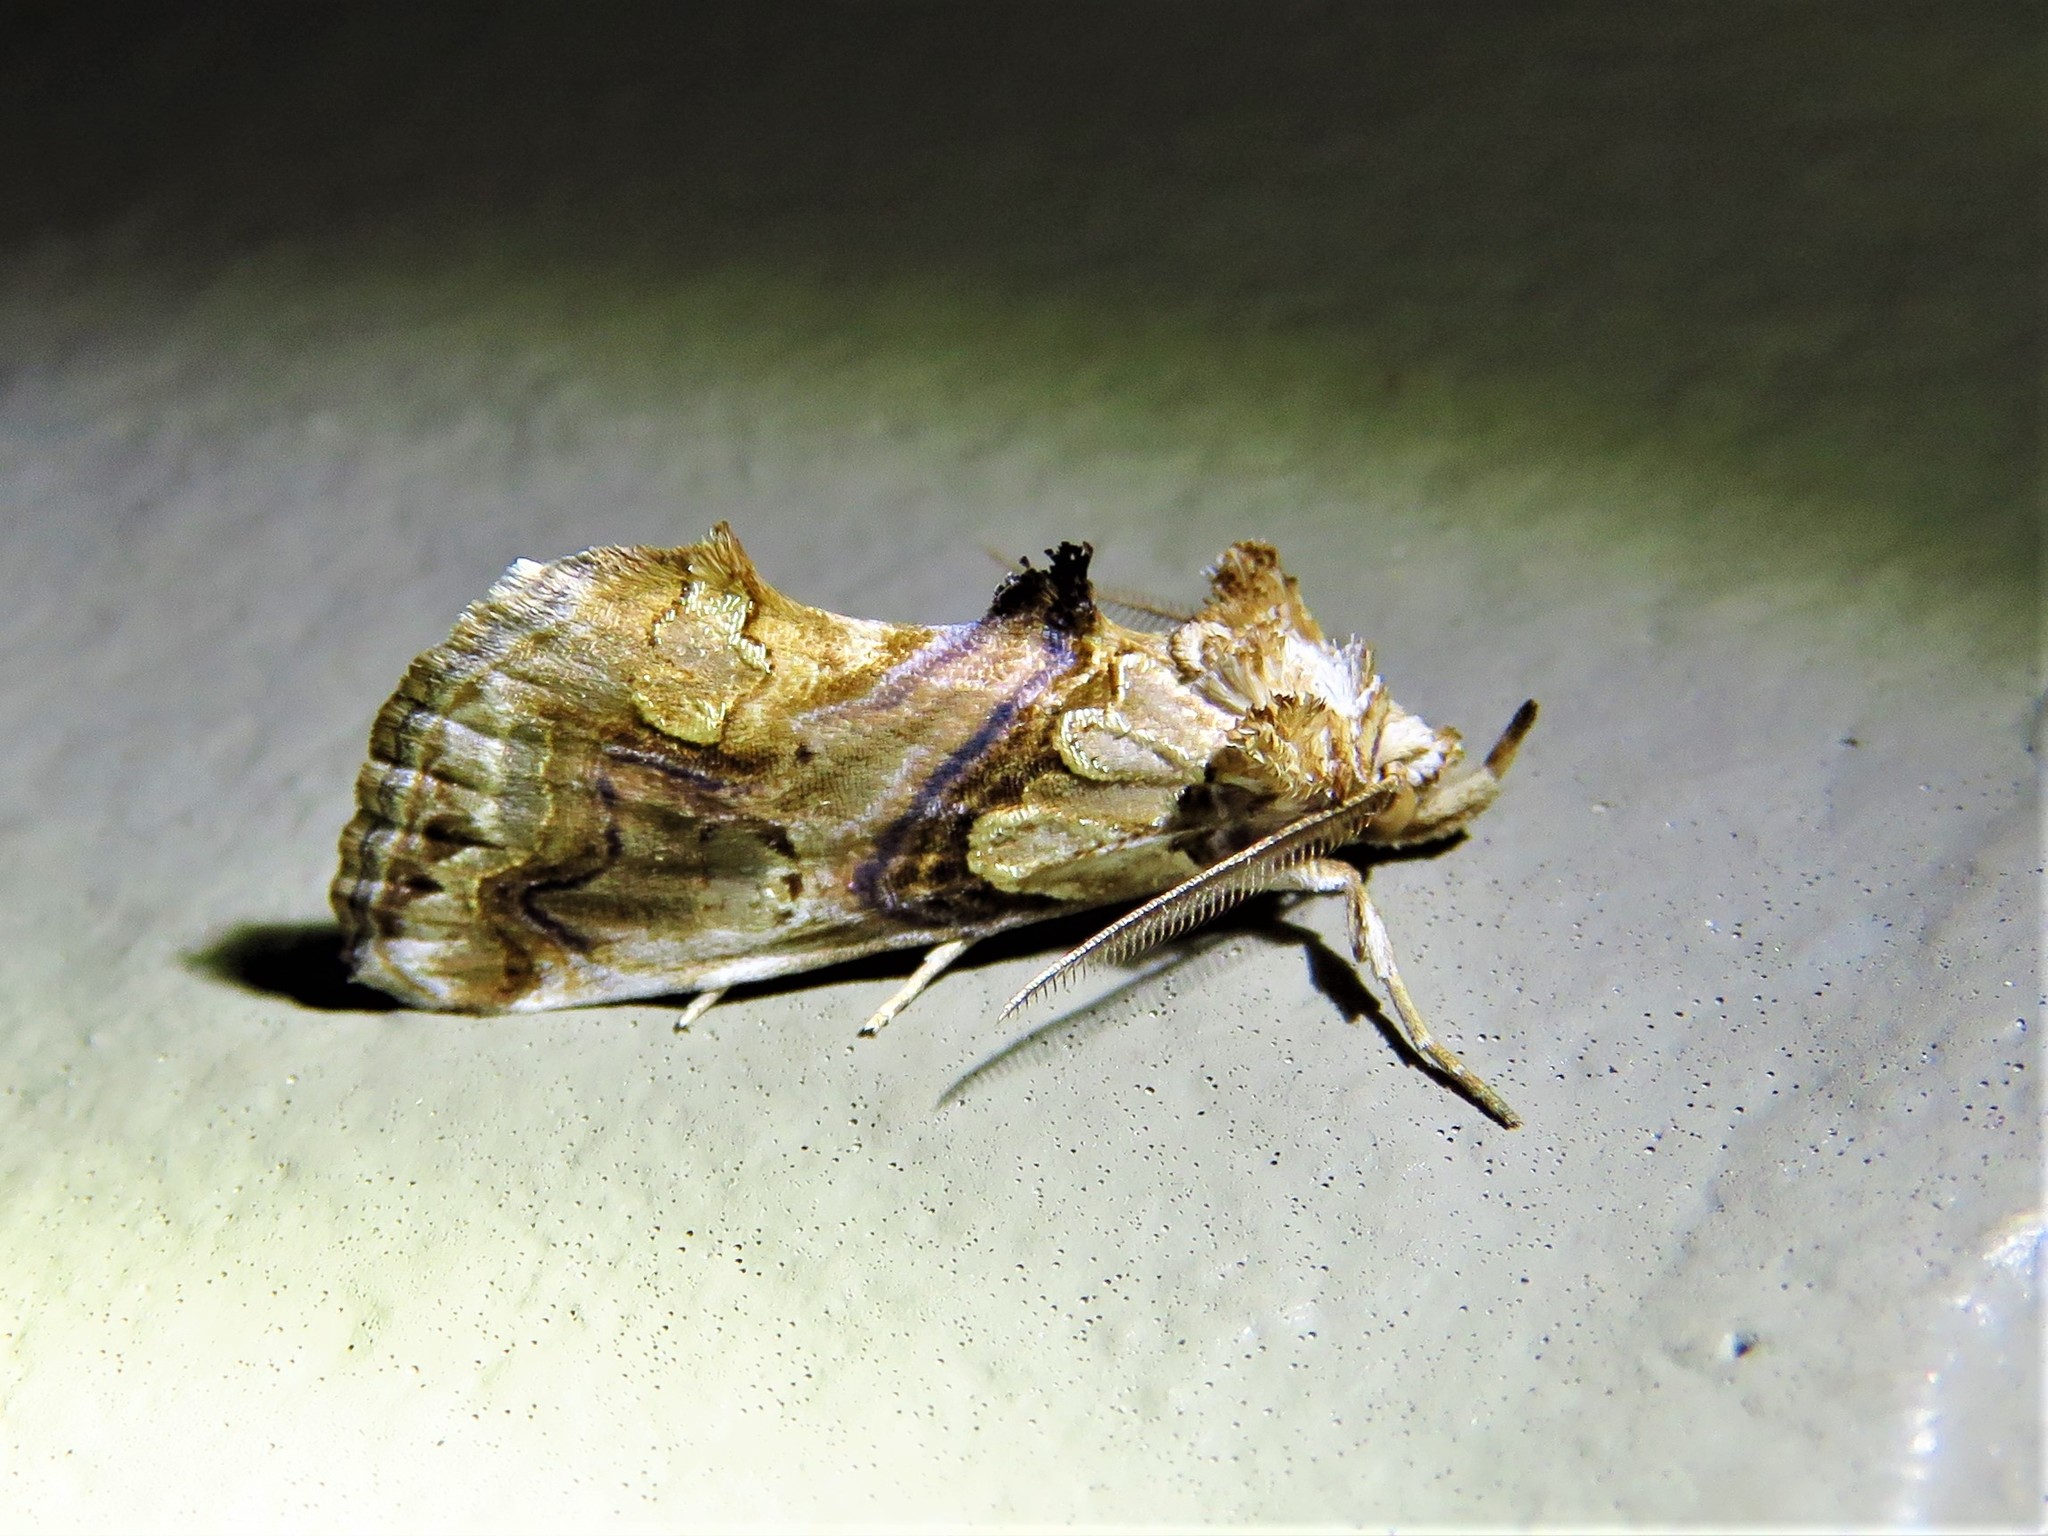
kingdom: Animalia
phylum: Arthropoda
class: Insecta
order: Lepidoptera
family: Erebidae
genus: Plusiodonta
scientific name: Plusiodonta compressipalpis
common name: Moonseed moth
